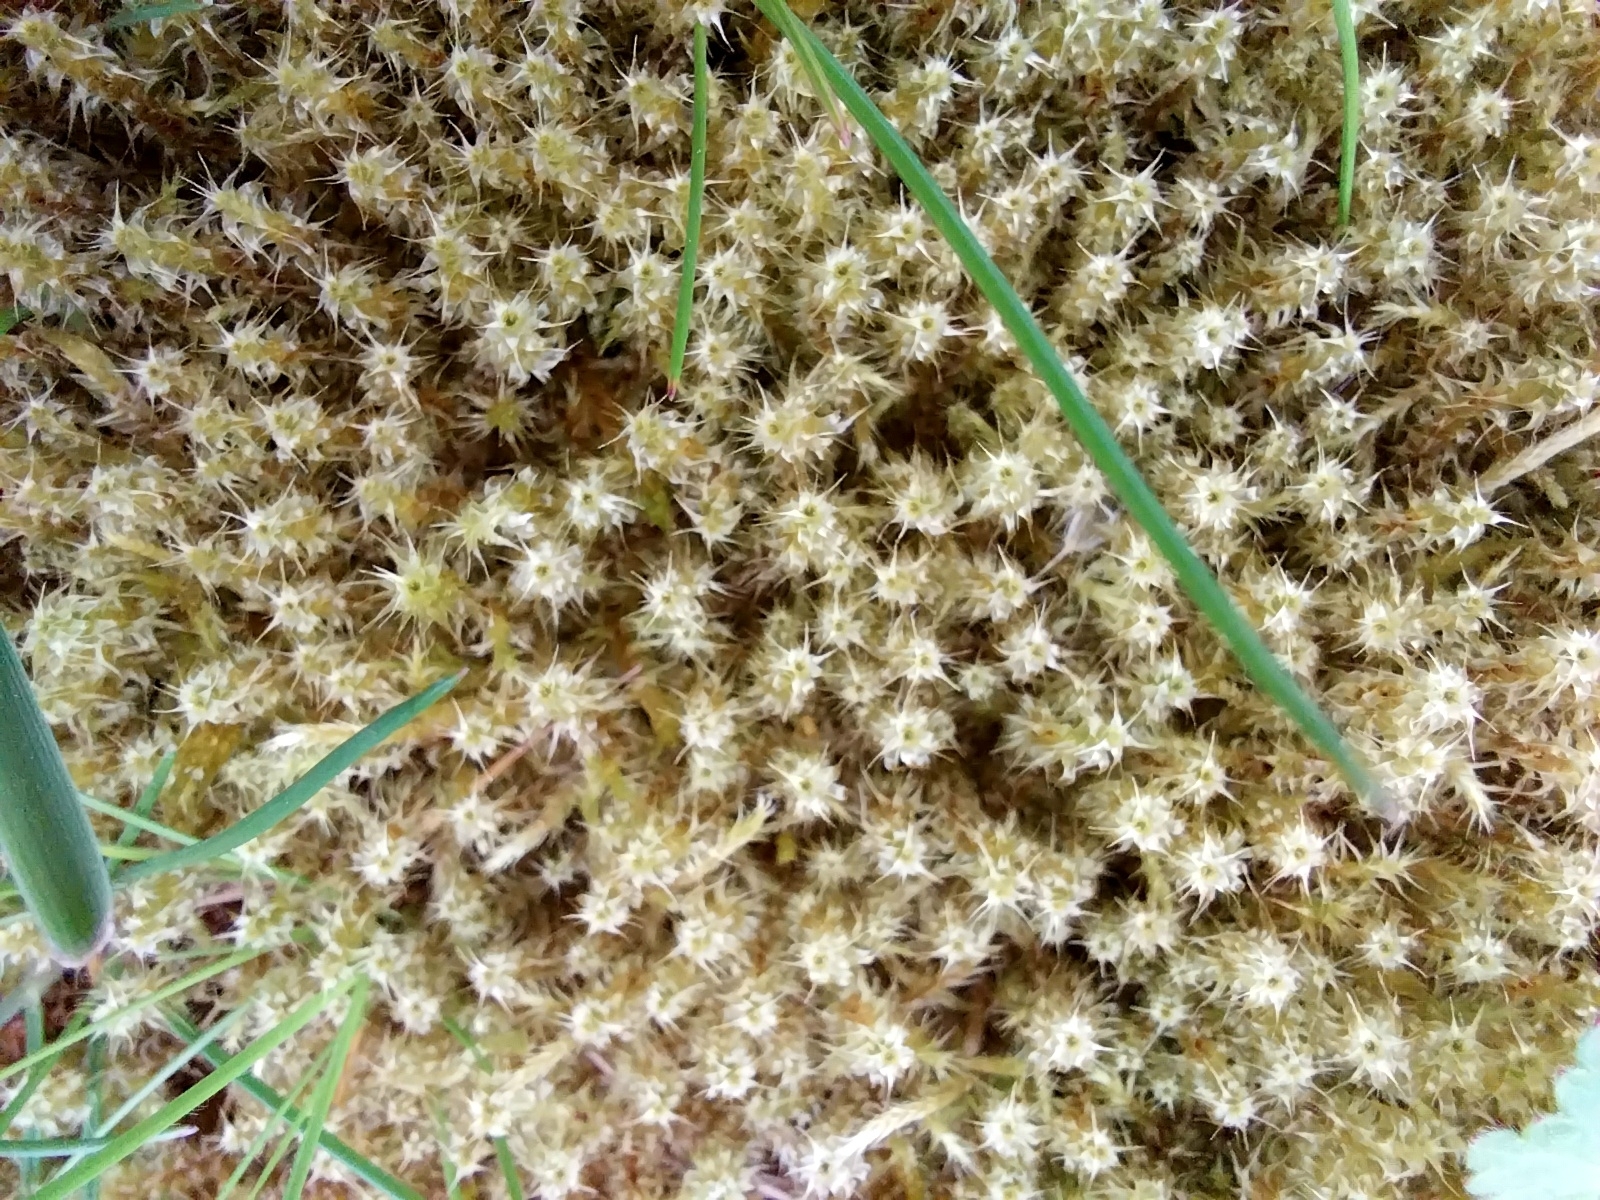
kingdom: Plantae
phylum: Bryophyta
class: Bryopsida
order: Hypnales
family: Hylocomiaceae
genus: Rhytidiadelphus
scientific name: Rhytidiadelphus squarrosus
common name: Springy turf-moss
